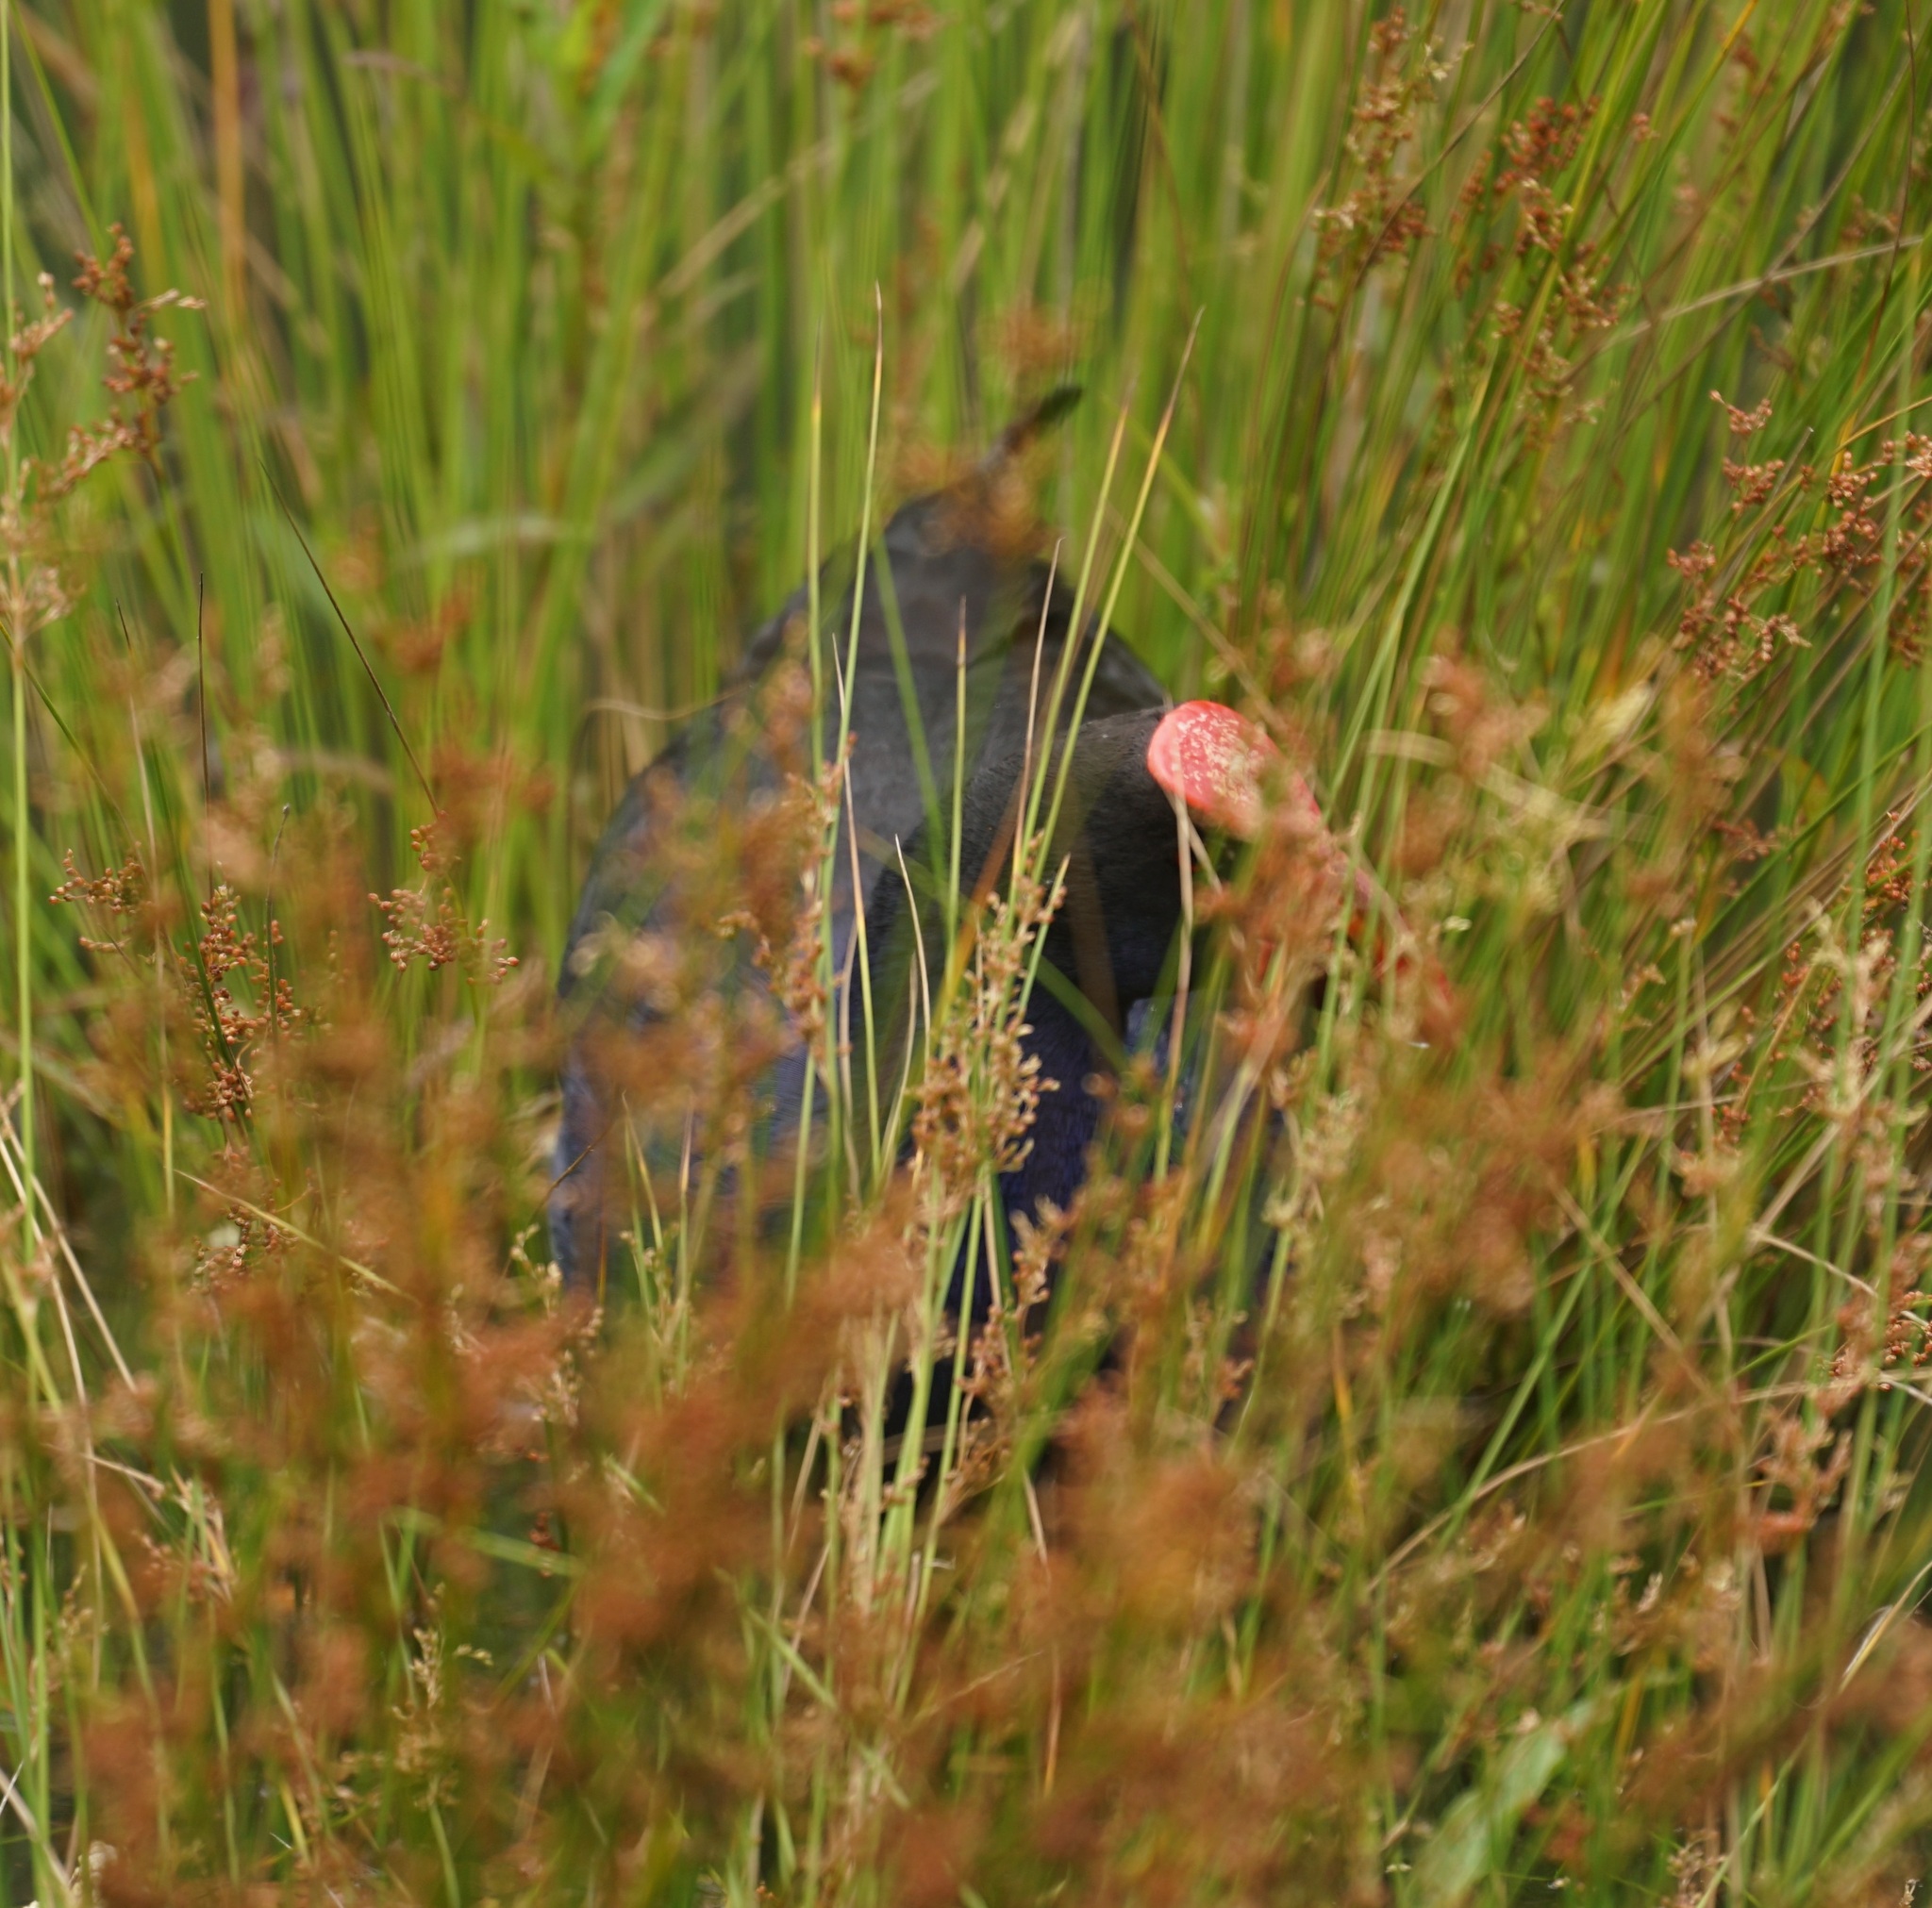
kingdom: Animalia
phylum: Chordata
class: Aves
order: Gruiformes
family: Rallidae
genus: Porphyrio
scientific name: Porphyrio melanotus
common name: Australasian swamphen
